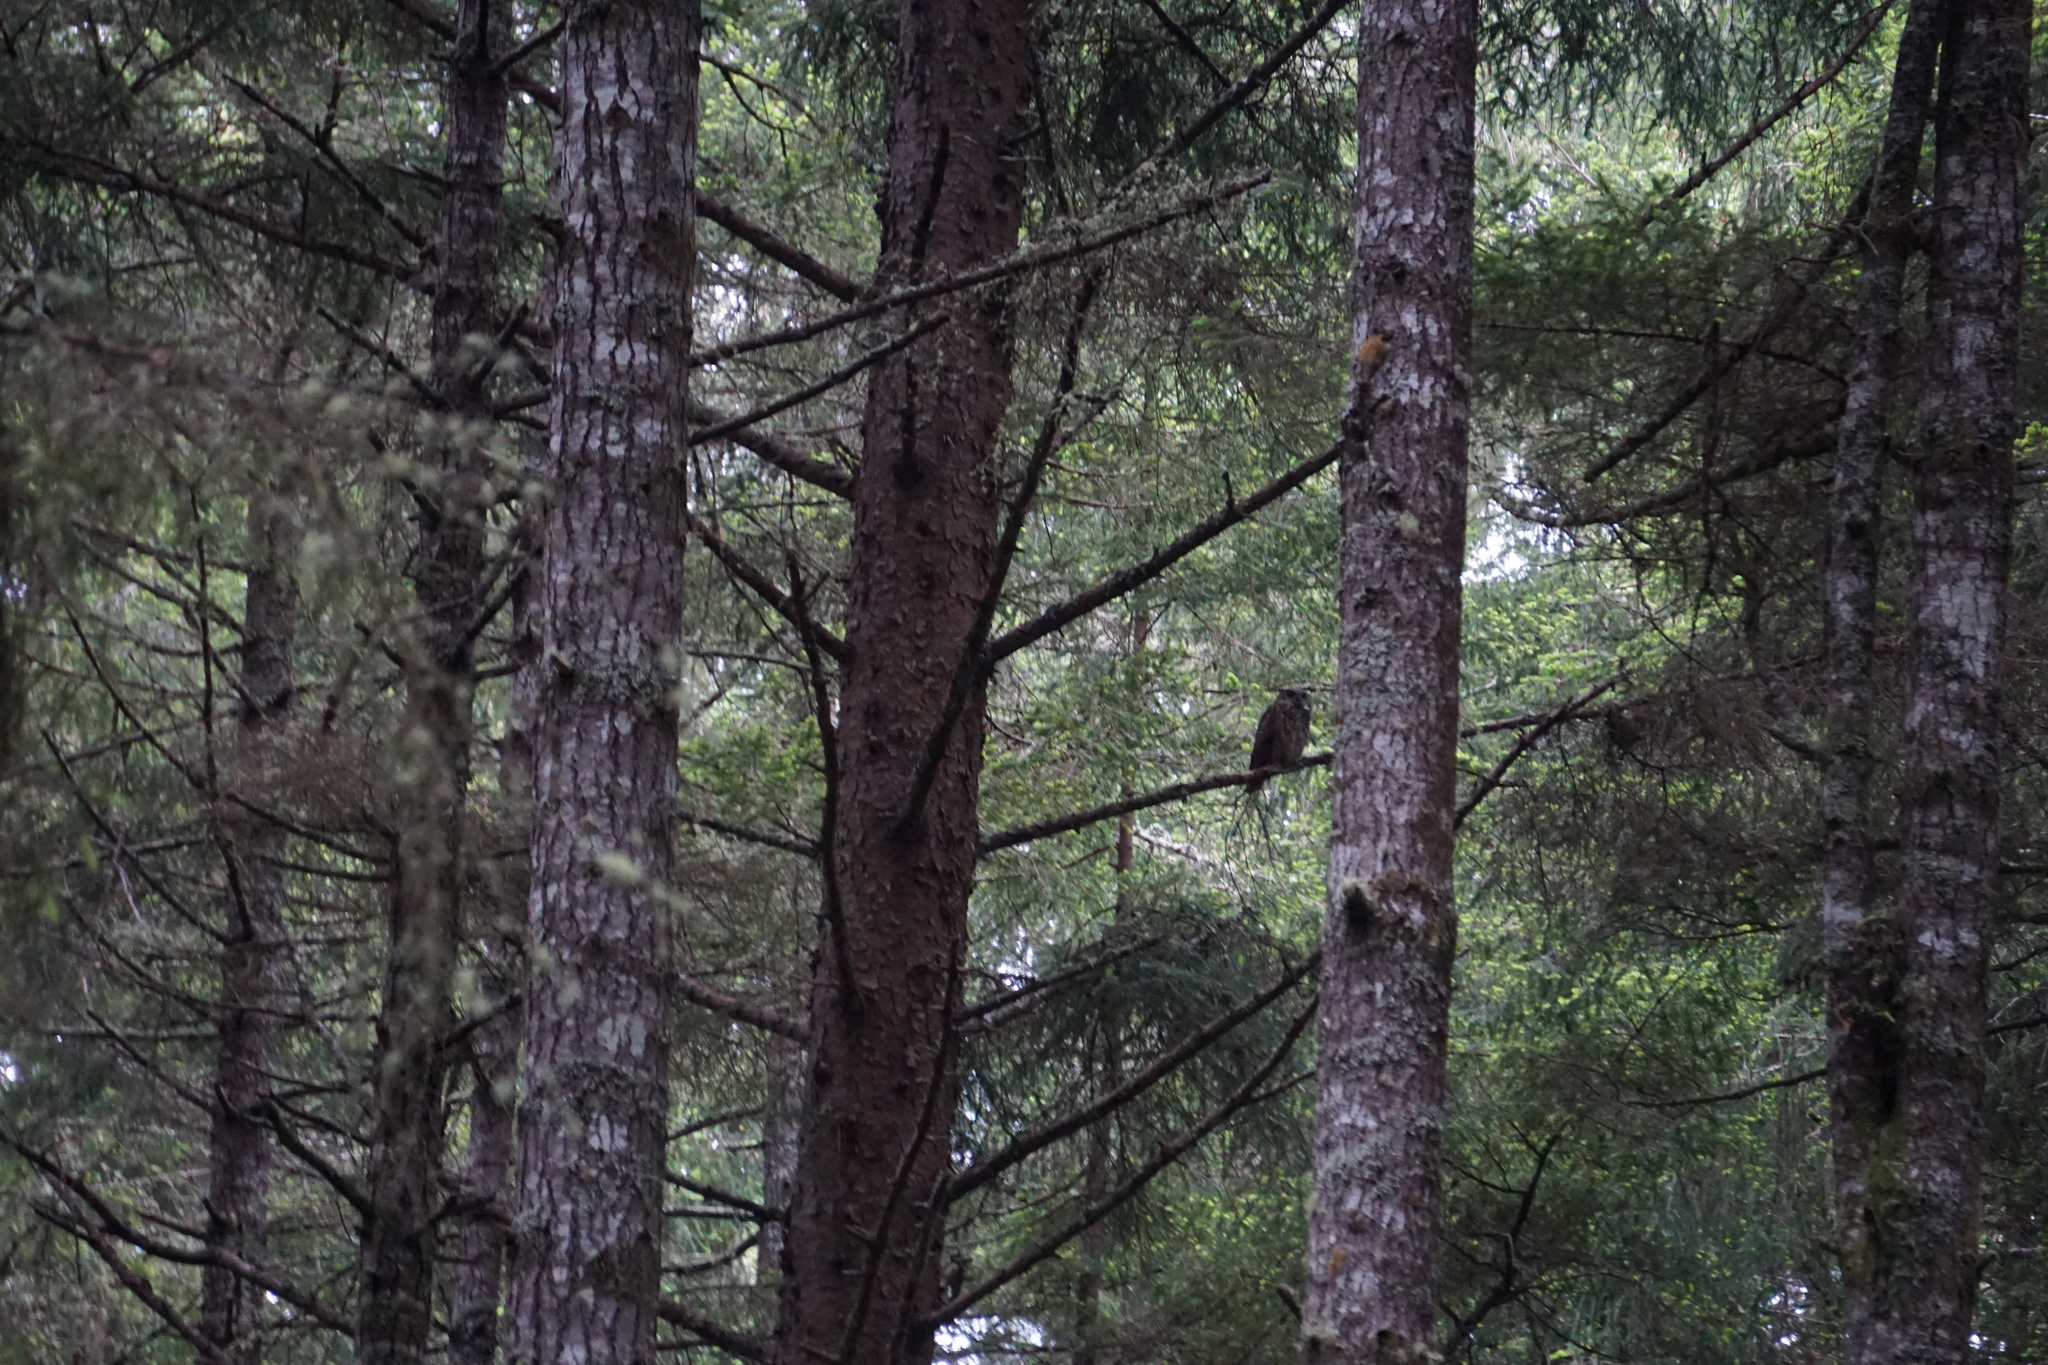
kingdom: Animalia
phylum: Chordata
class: Aves
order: Strigiformes
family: Strigidae
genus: Bubo
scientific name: Bubo virginianus
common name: Great horned owl
